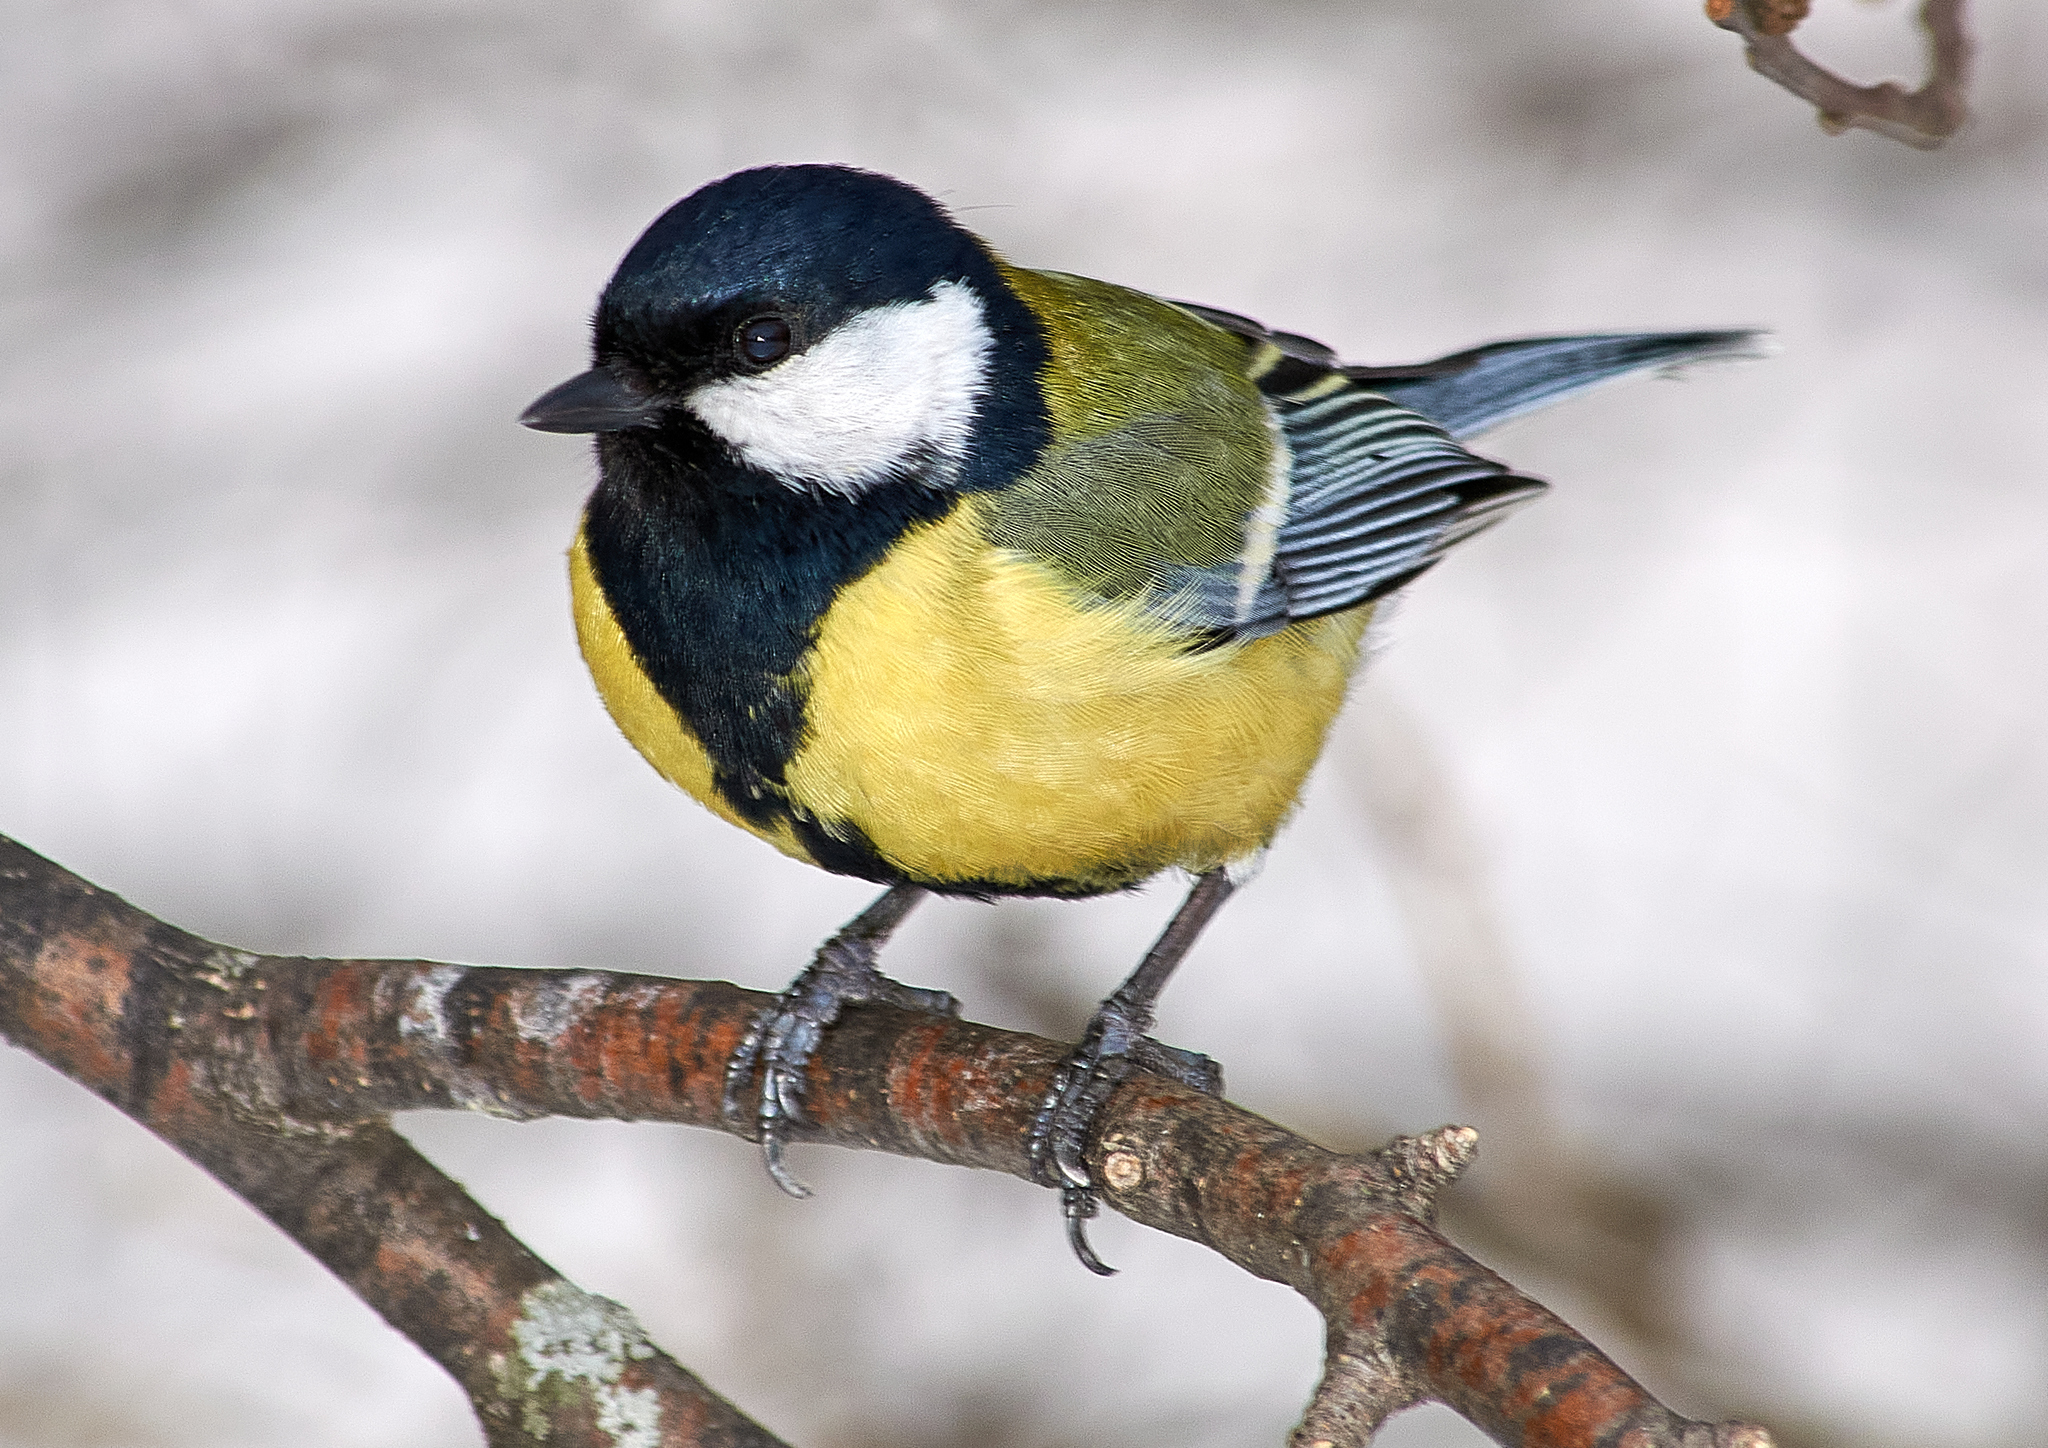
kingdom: Animalia
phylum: Chordata
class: Aves
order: Passeriformes
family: Paridae
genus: Parus
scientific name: Parus major
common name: Great tit
